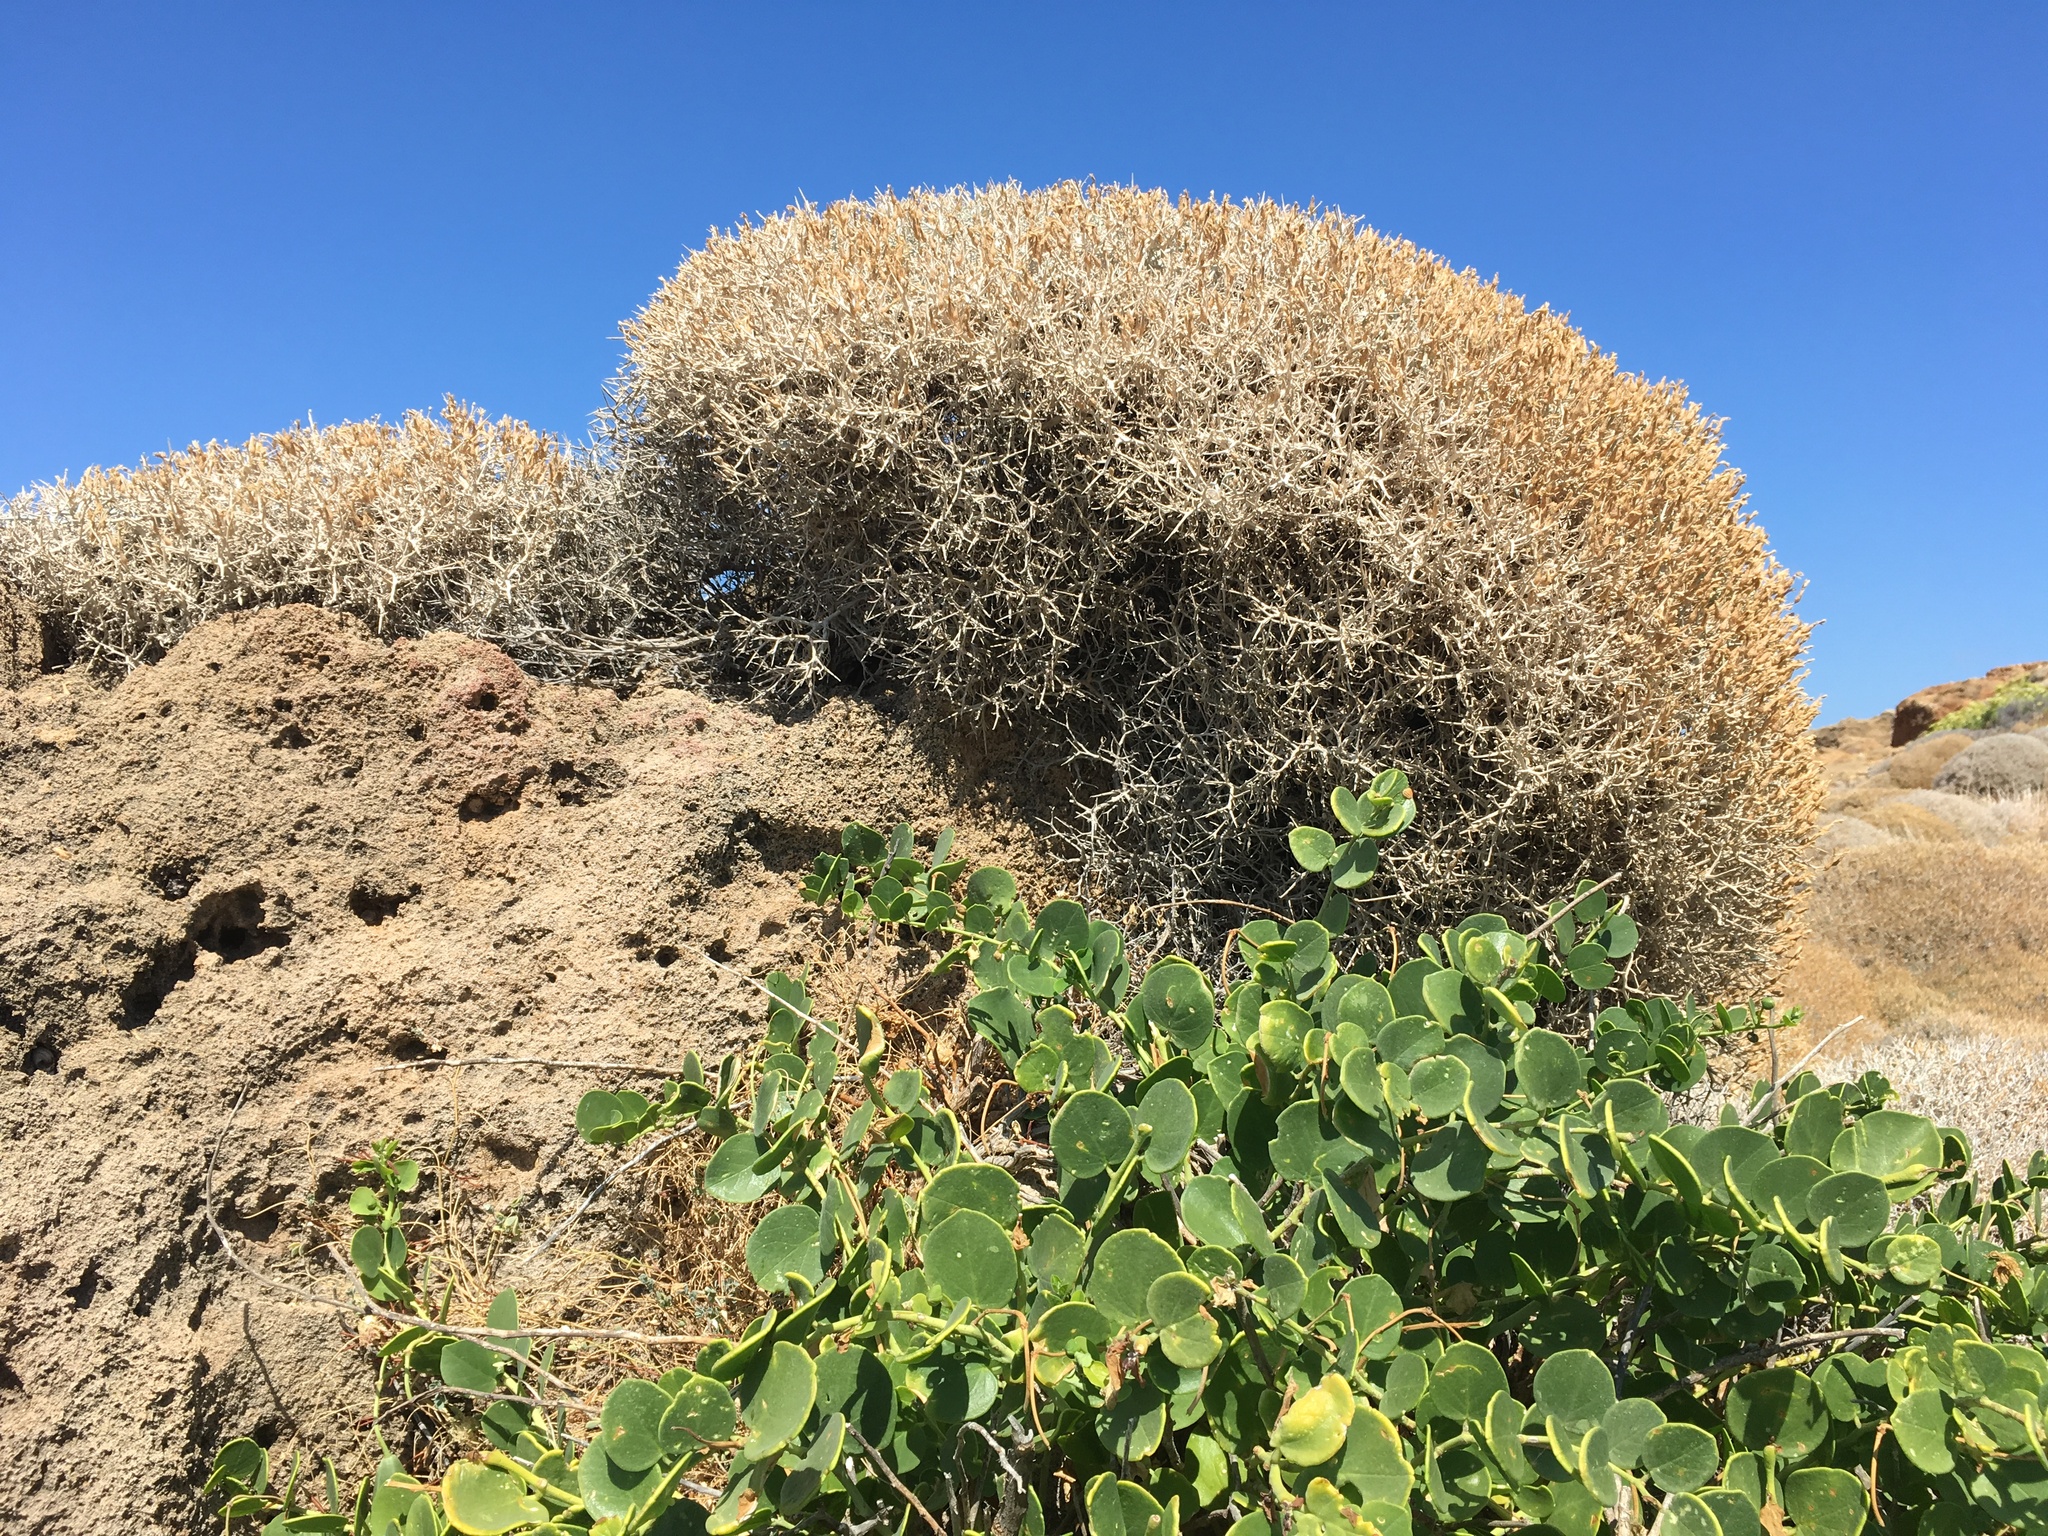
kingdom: Plantae
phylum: Tracheophyta
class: Magnoliopsida
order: Brassicales
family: Capparaceae
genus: Capparis
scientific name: Capparis orientalis
